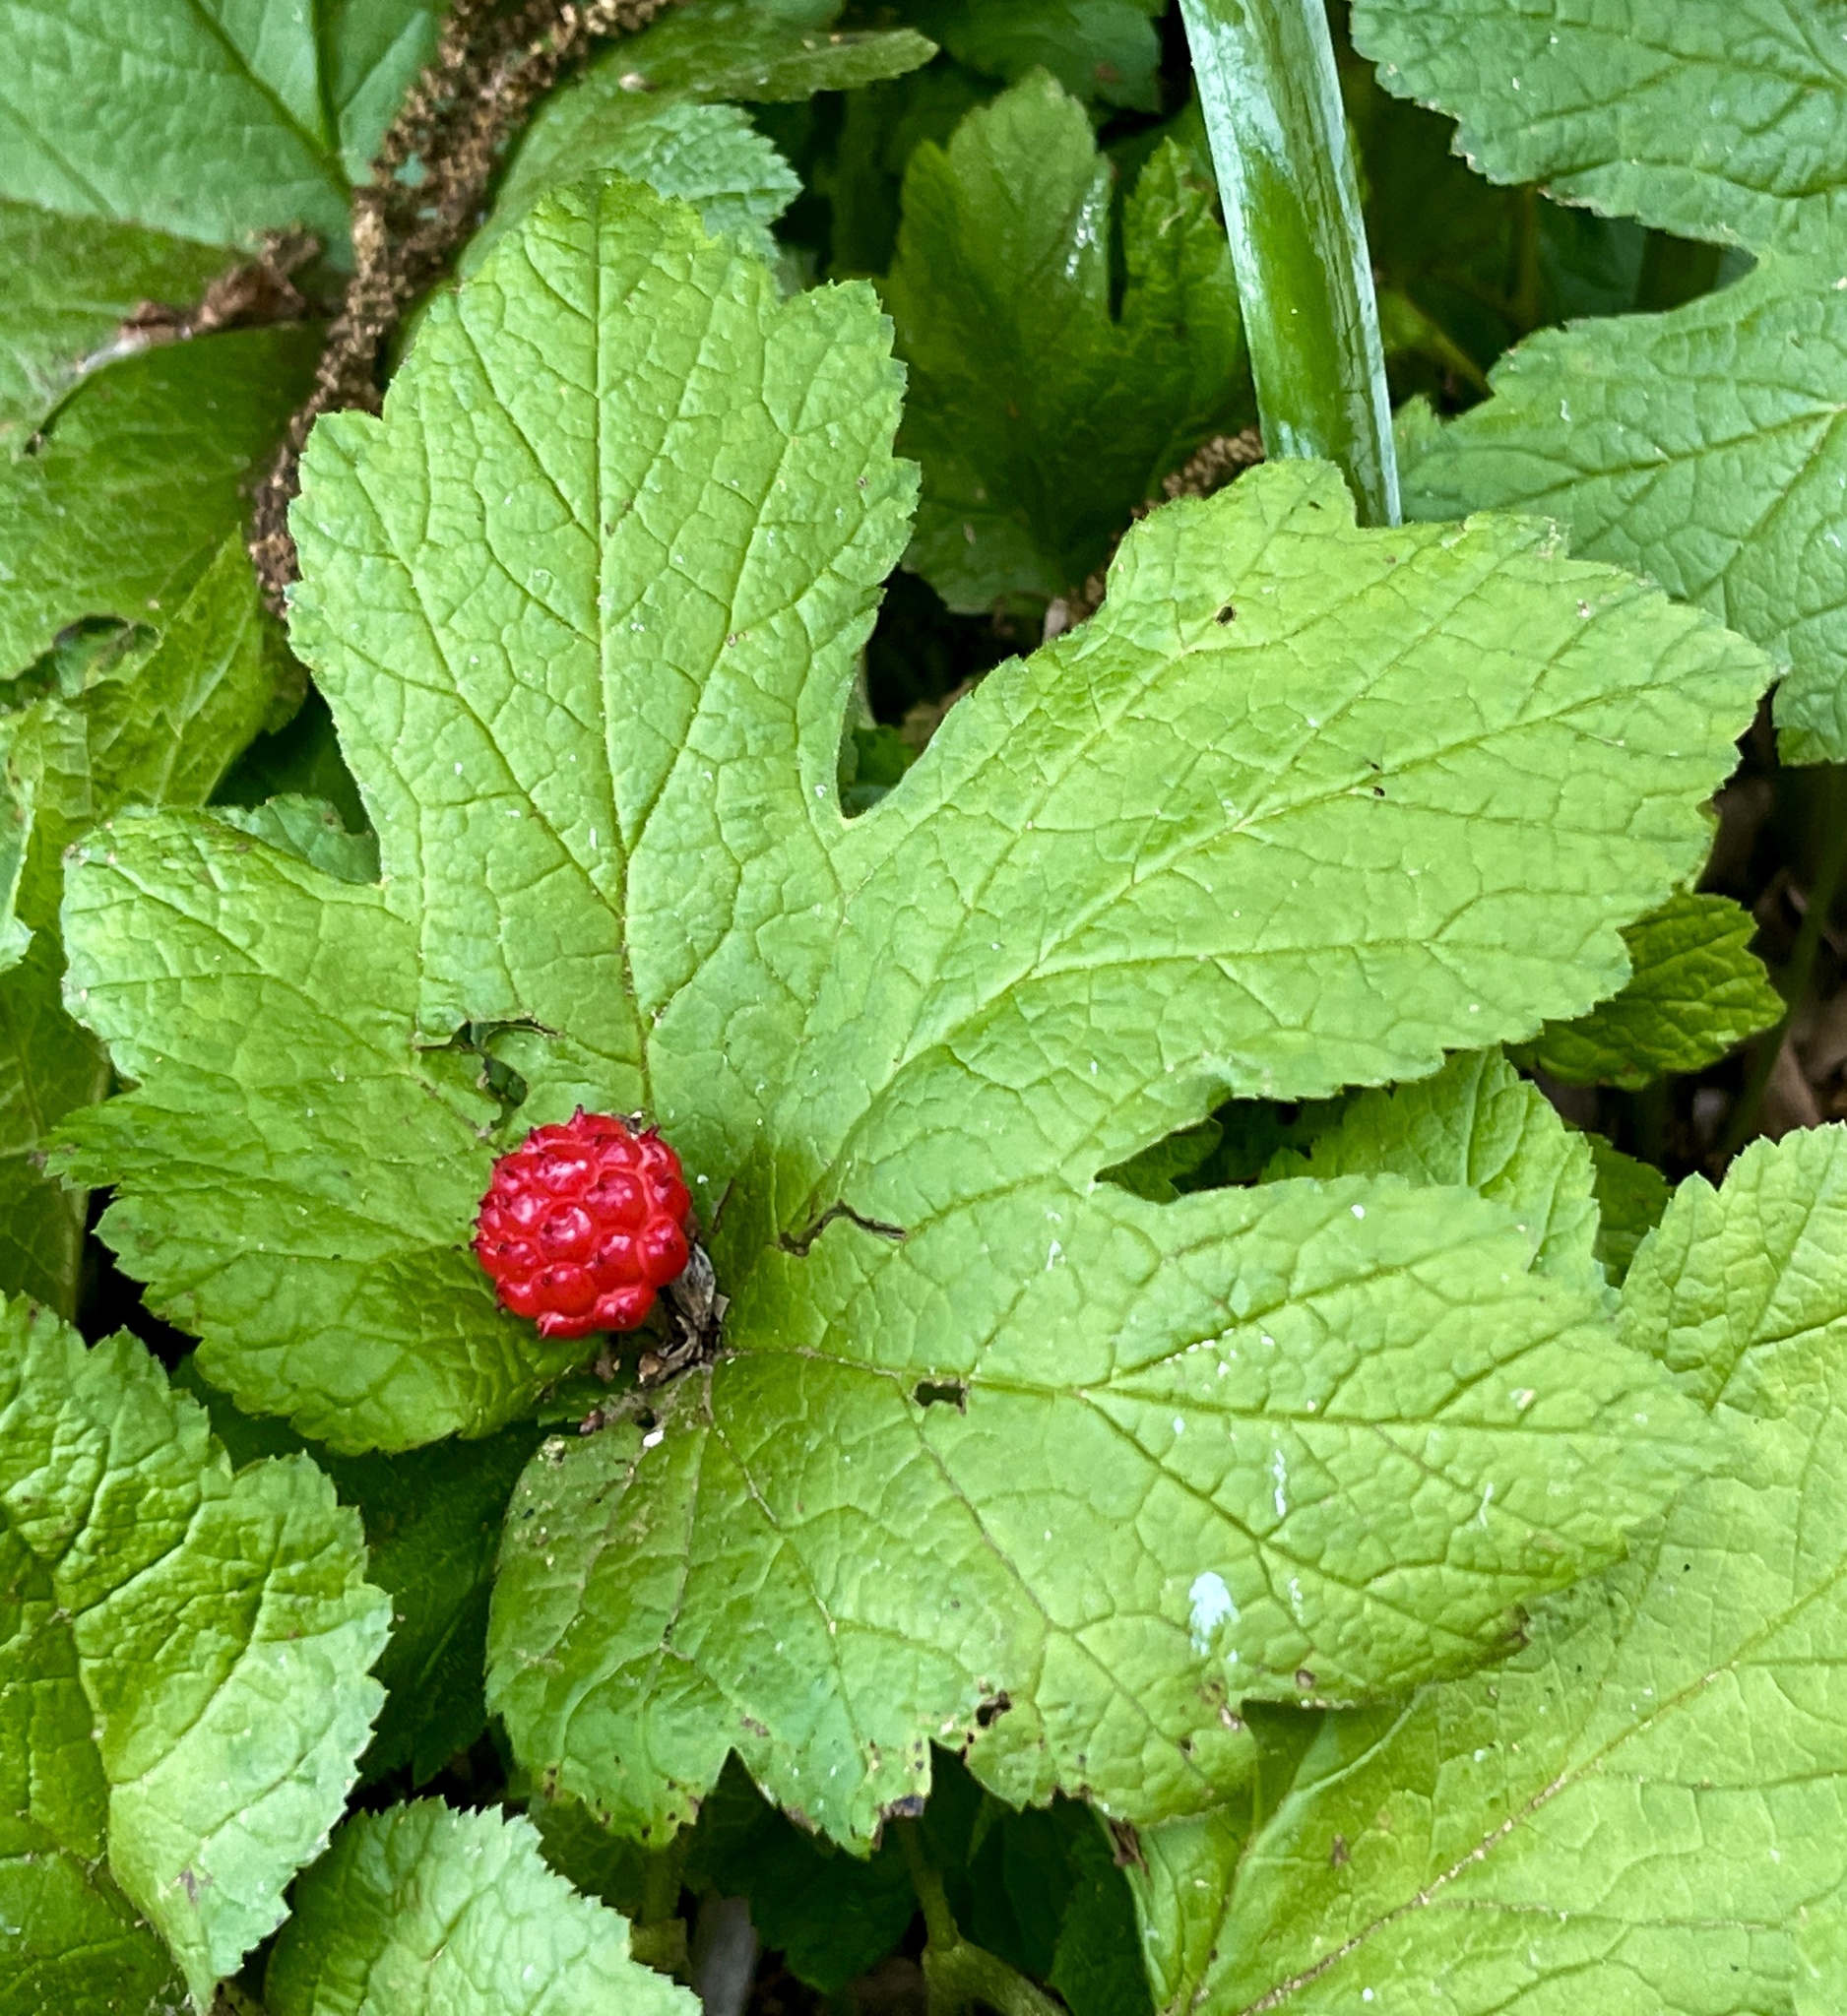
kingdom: Plantae
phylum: Tracheophyta
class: Magnoliopsida
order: Ranunculales
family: Ranunculaceae
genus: Hydrastis
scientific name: Hydrastis canadensis
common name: Goldenseal
